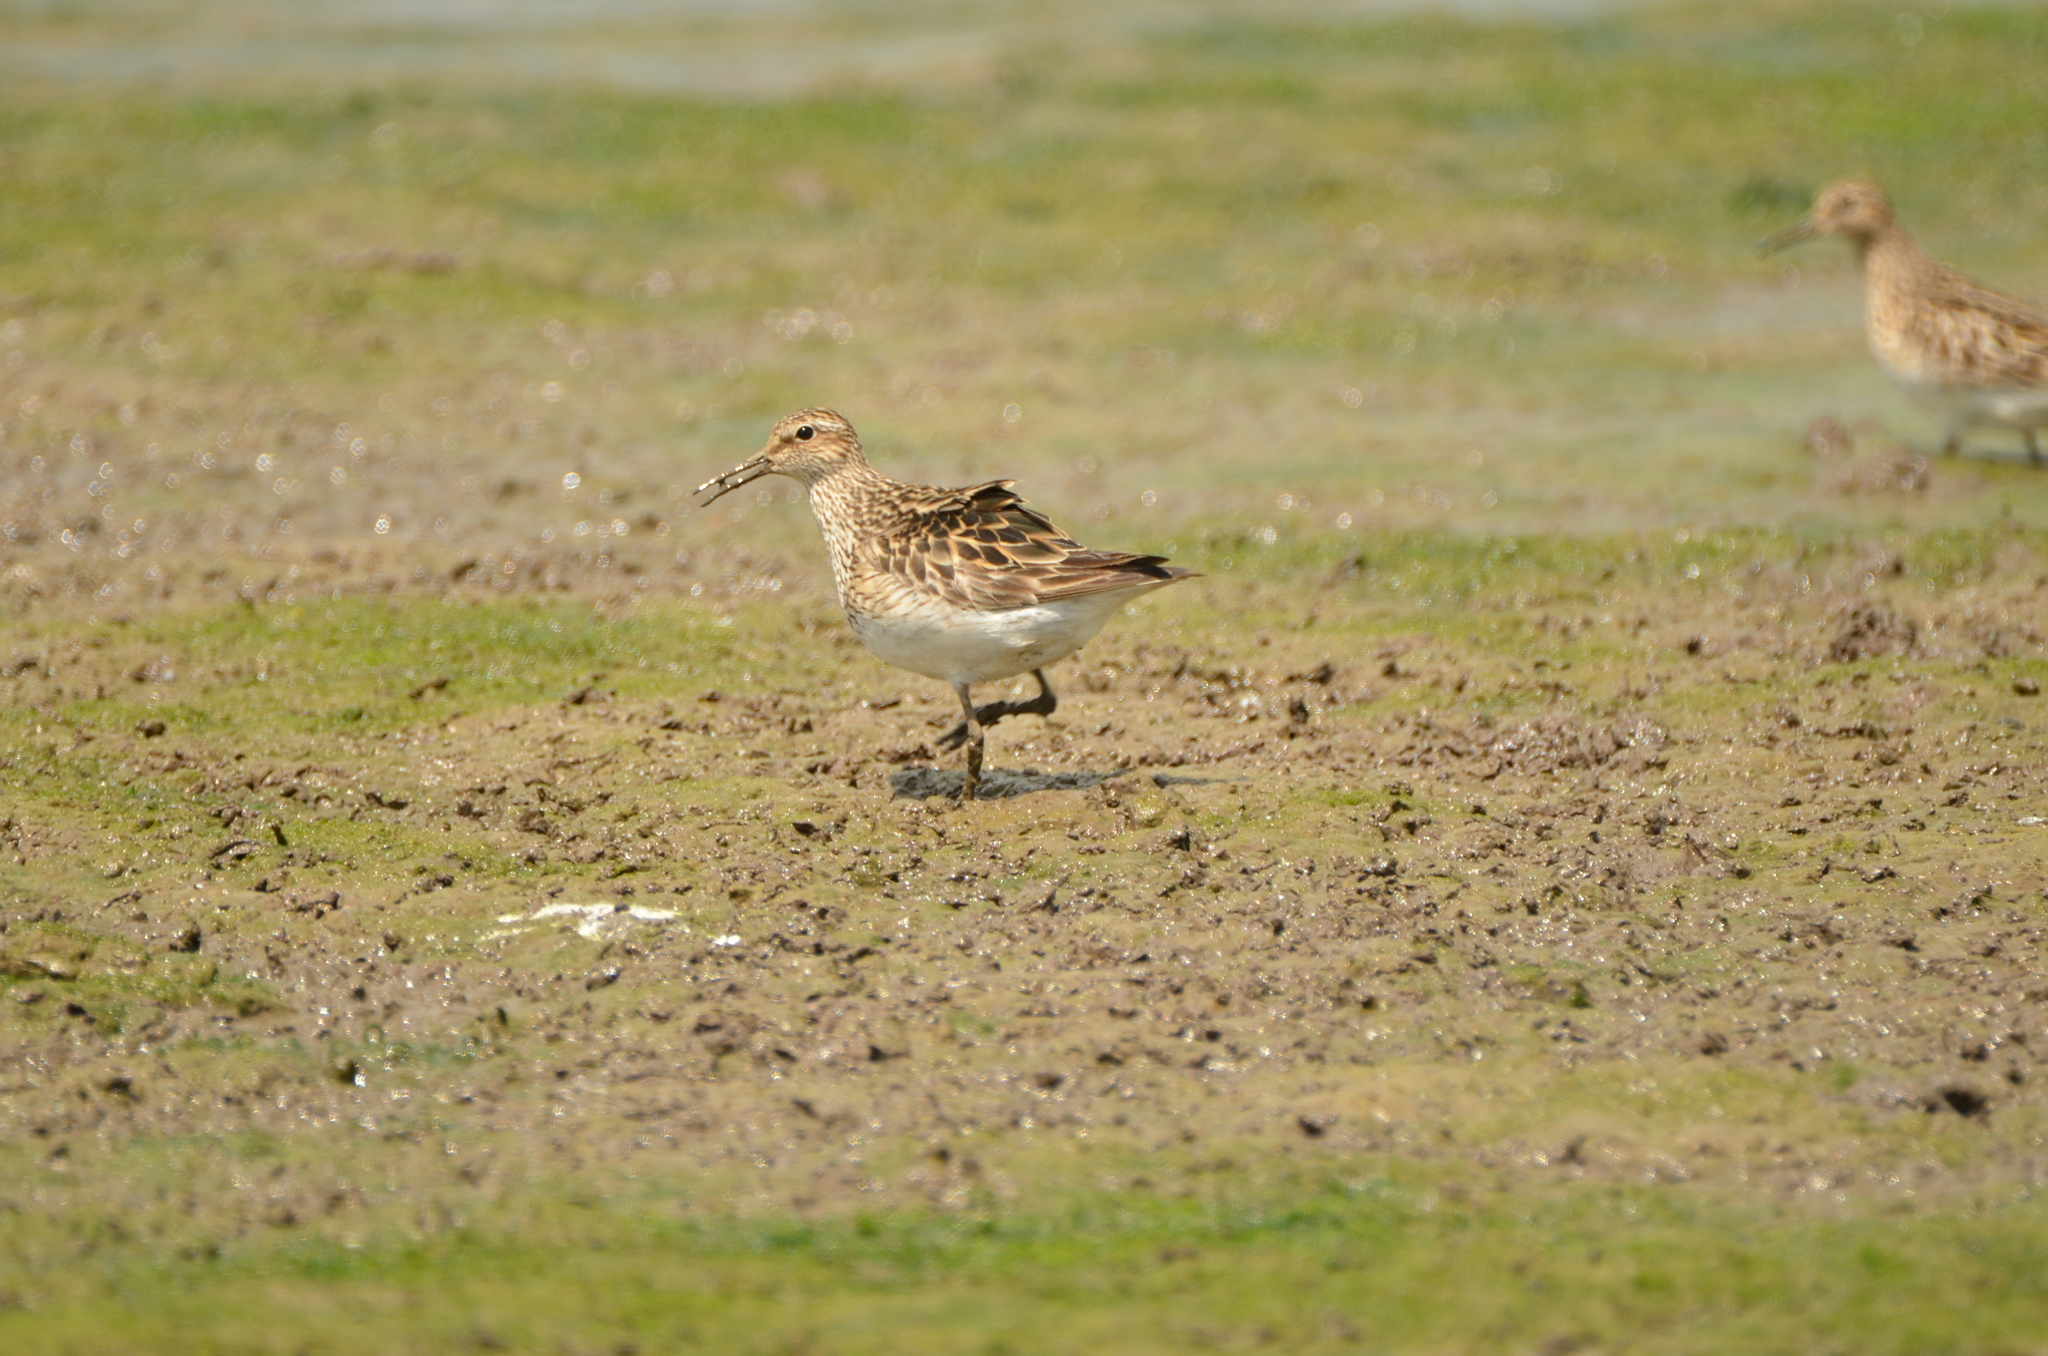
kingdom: Animalia
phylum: Chordata
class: Aves
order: Charadriiformes
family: Scolopacidae
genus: Calidris
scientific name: Calidris melanotos
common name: Pectoral sandpiper
